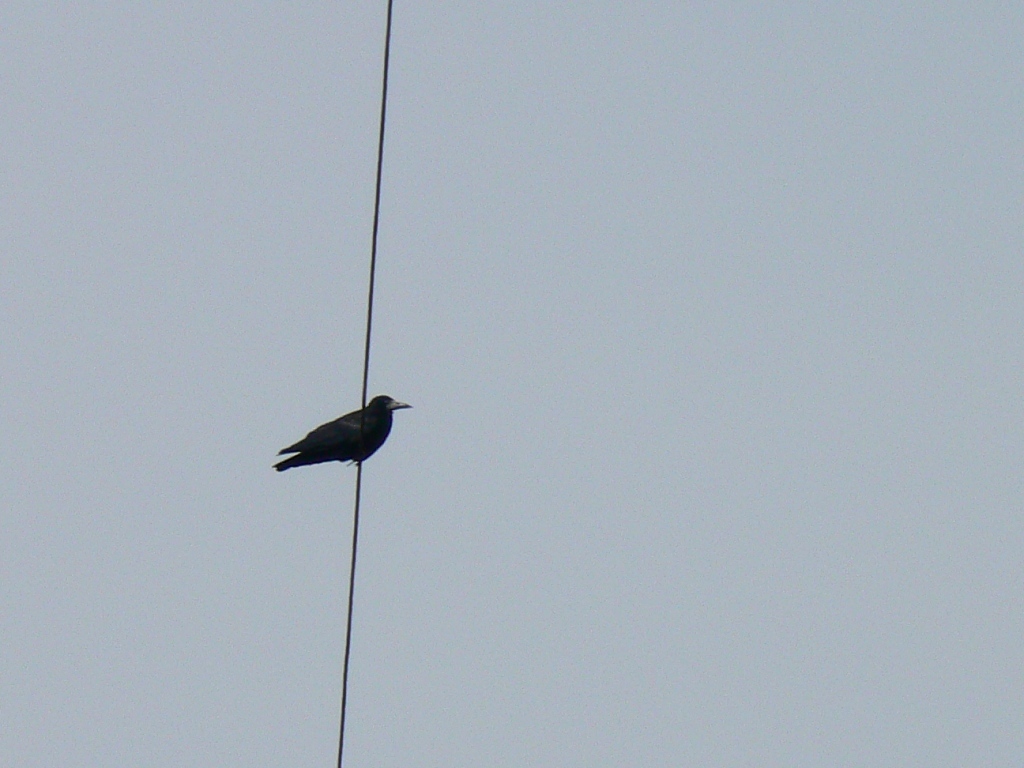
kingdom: Animalia
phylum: Chordata
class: Aves
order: Passeriformes
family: Corvidae
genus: Corvus
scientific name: Corvus frugilegus
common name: Rook
